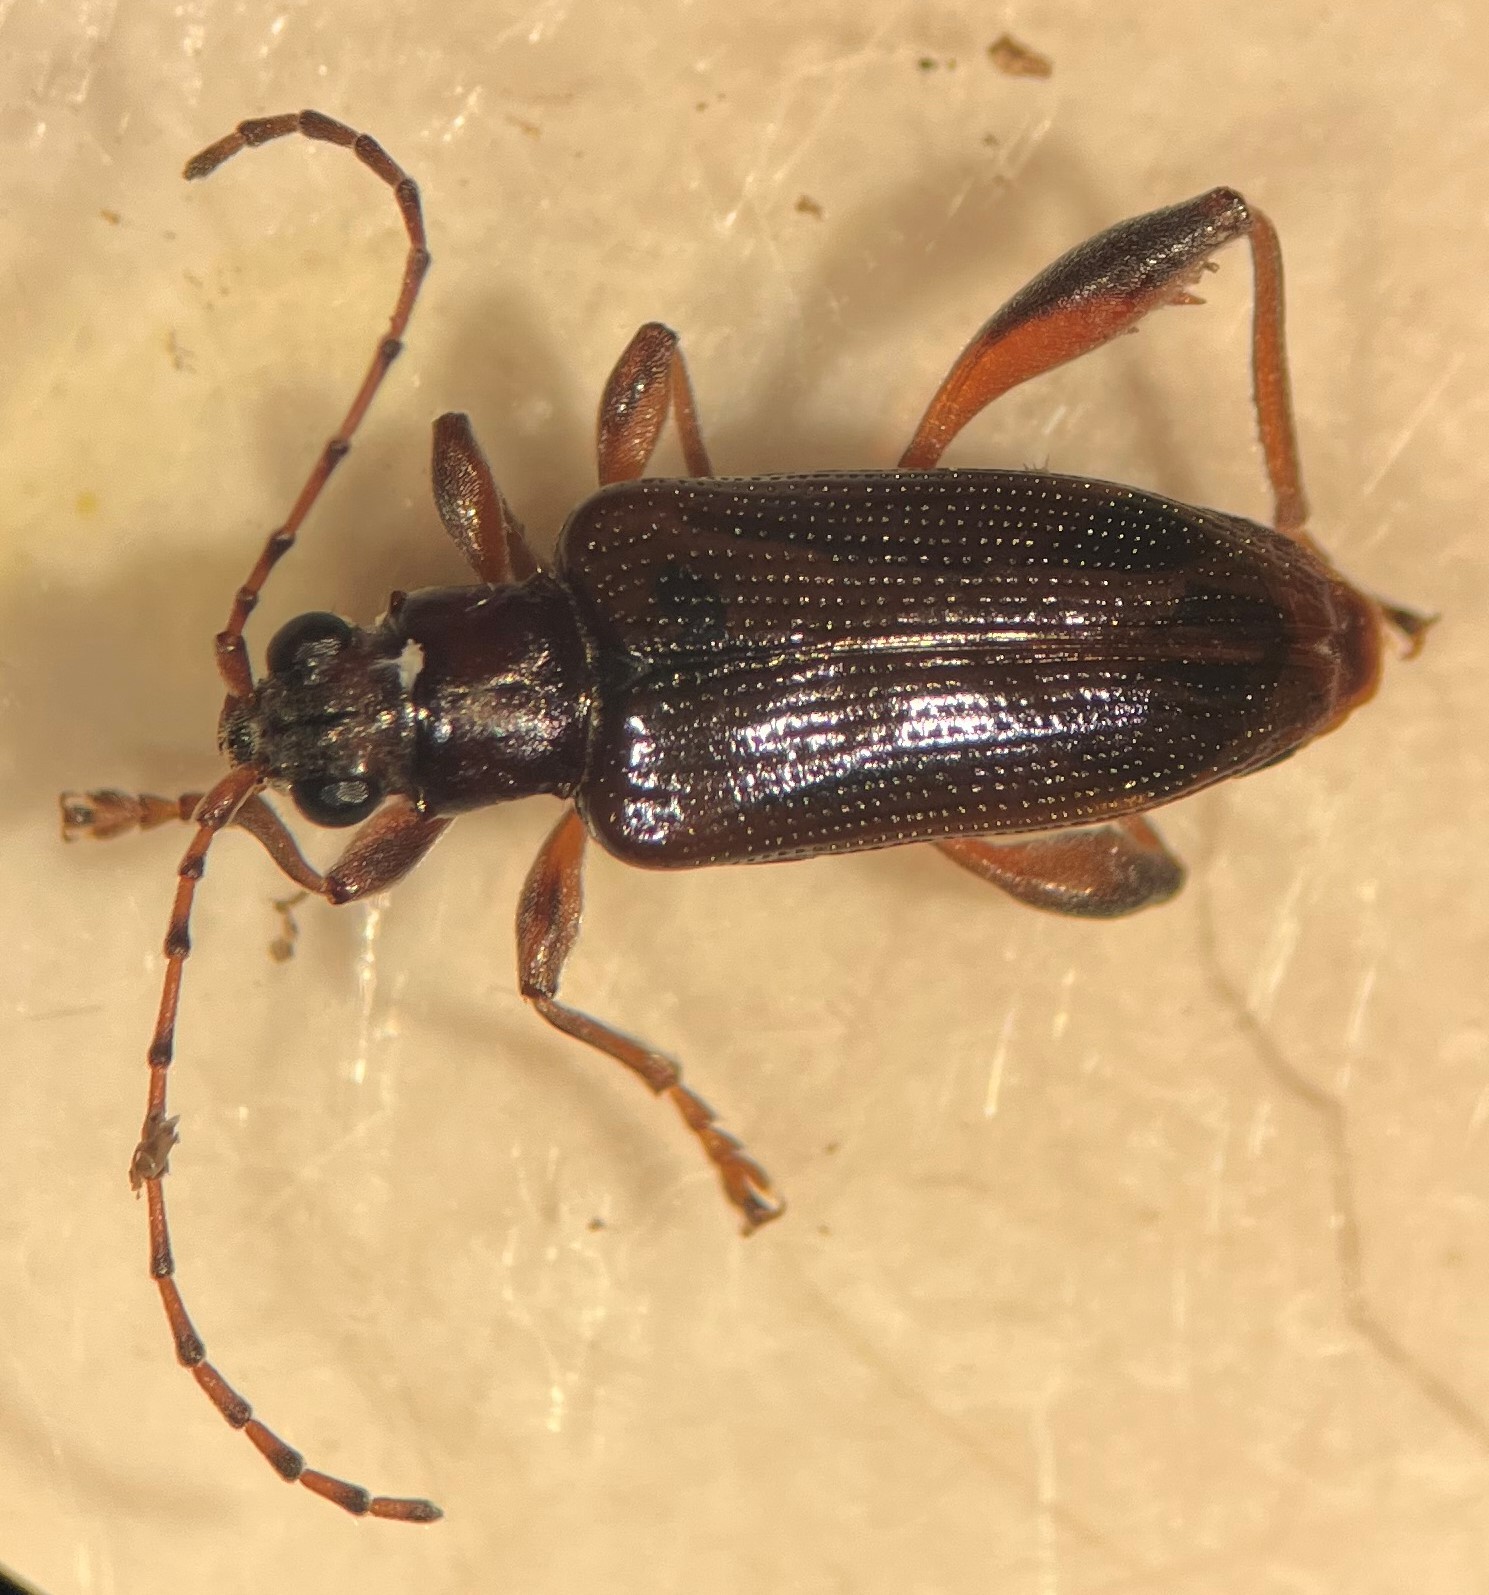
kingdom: Animalia
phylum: Arthropoda
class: Insecta
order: Coleoptera
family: Chrysomelidae
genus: Donacia
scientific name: Donacia cincticornis
